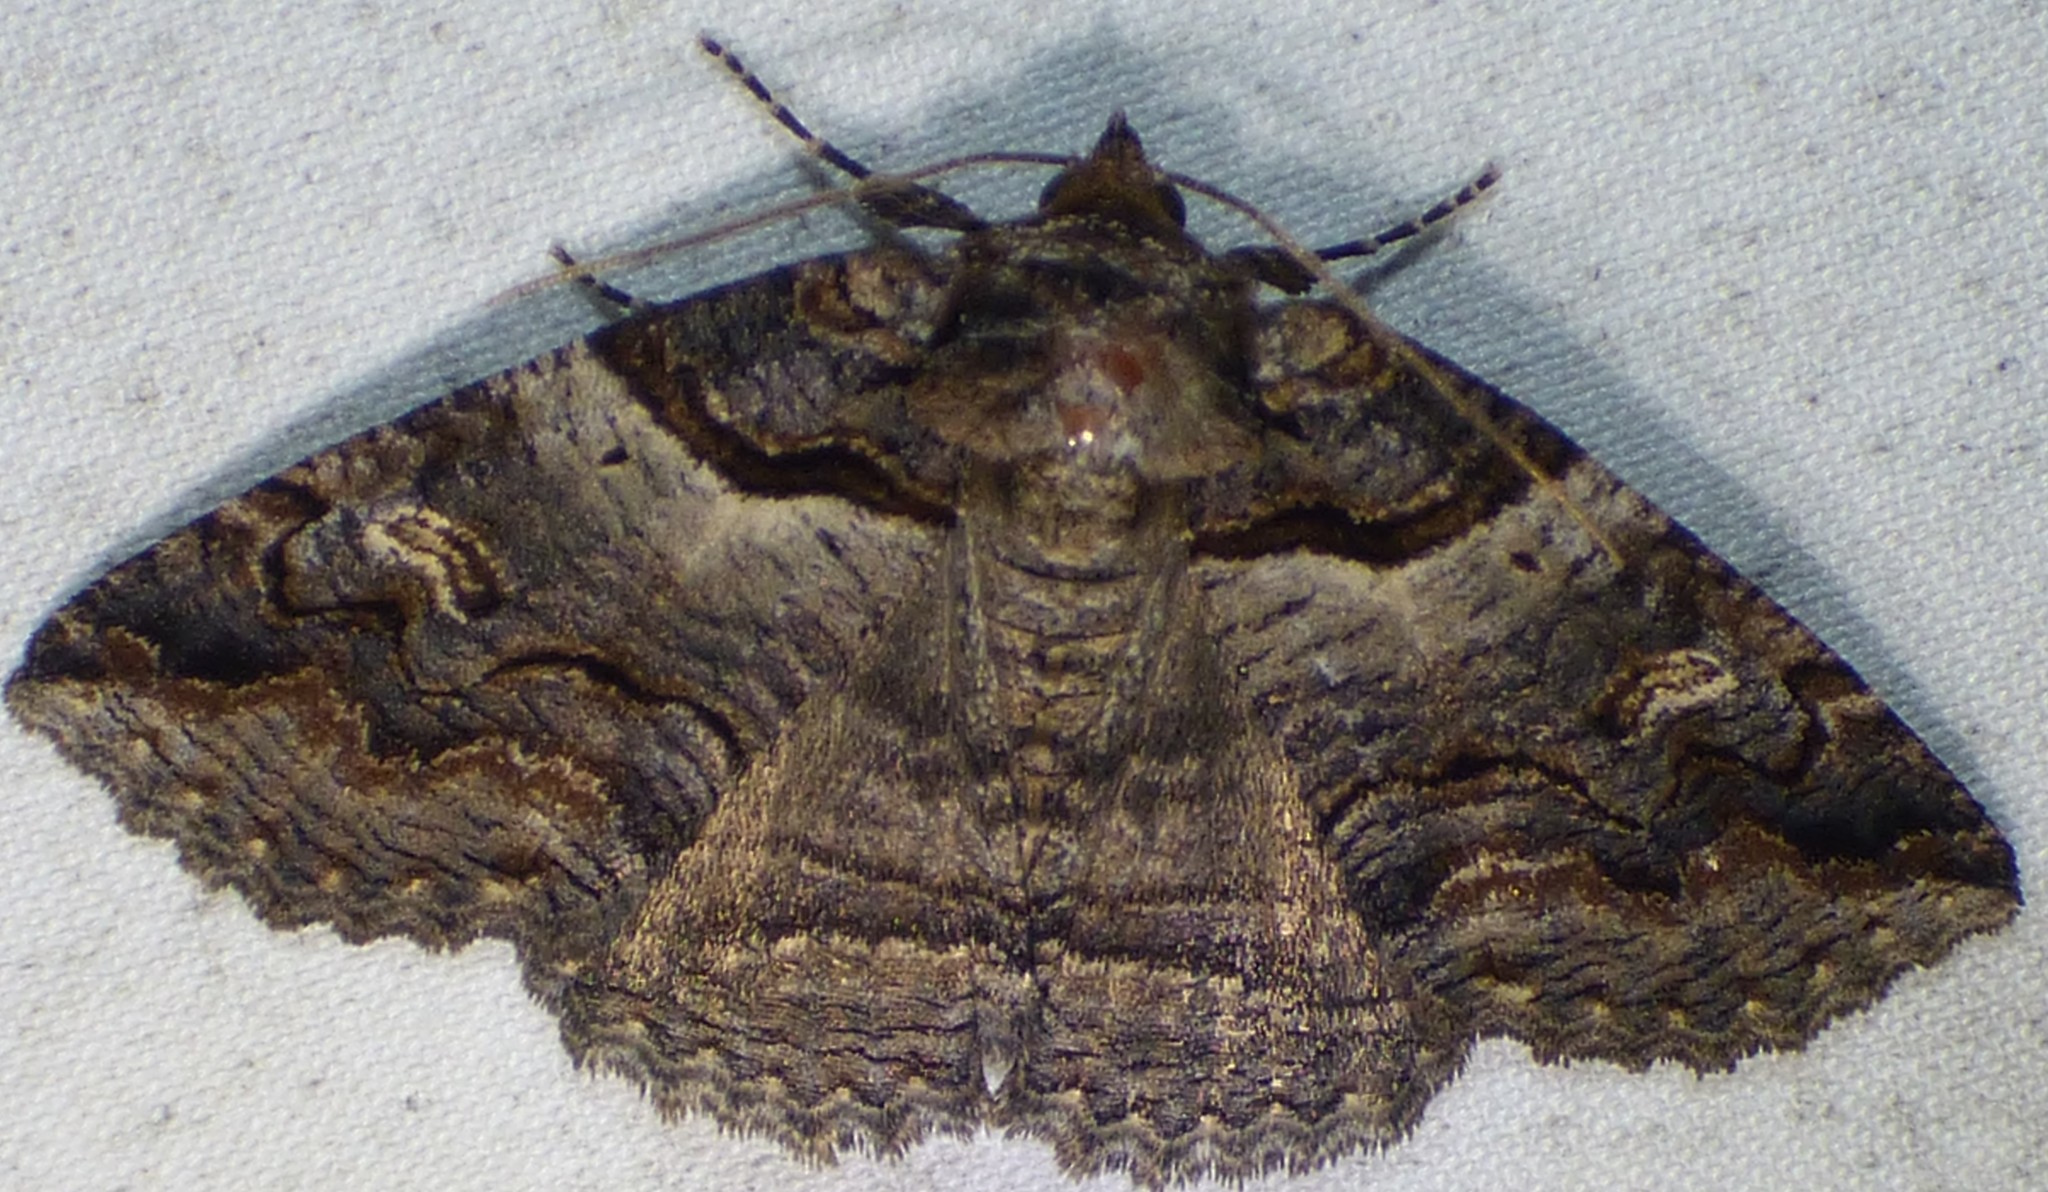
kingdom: Animalia
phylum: Arthropoda
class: Insecta
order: Lepidoptera
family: Erebidae
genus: Zale
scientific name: Zale intenta
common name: Intent zale moth
